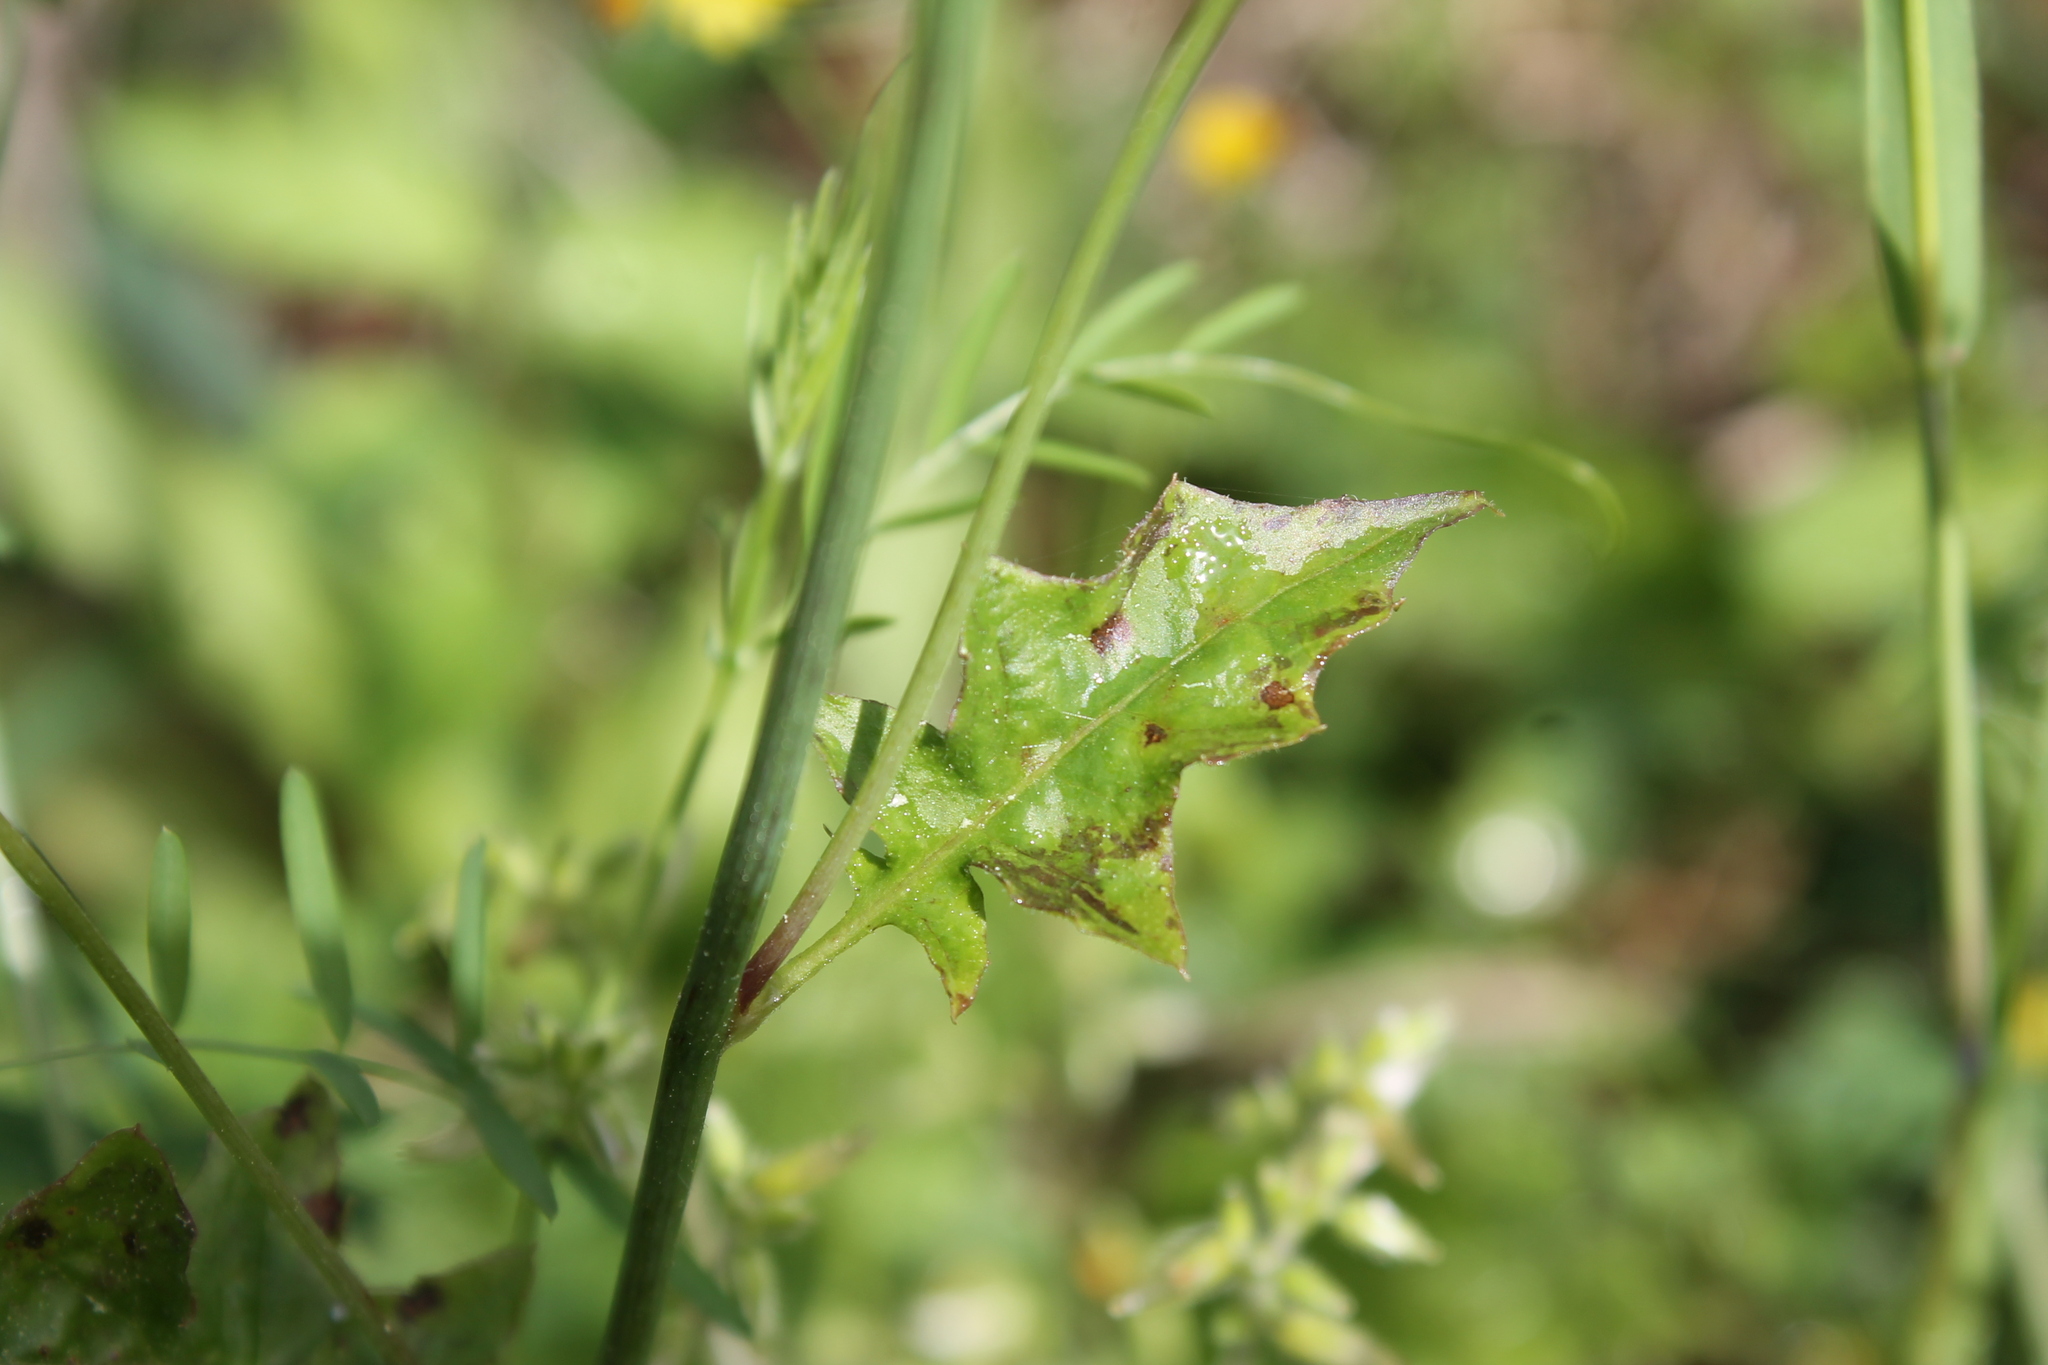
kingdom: Plantae
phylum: Tracheophyta
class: Magnoliopsida
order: Asterales
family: Asteraceae
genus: Youngia
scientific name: Youngia japonica
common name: Oriental false hawksbeard
